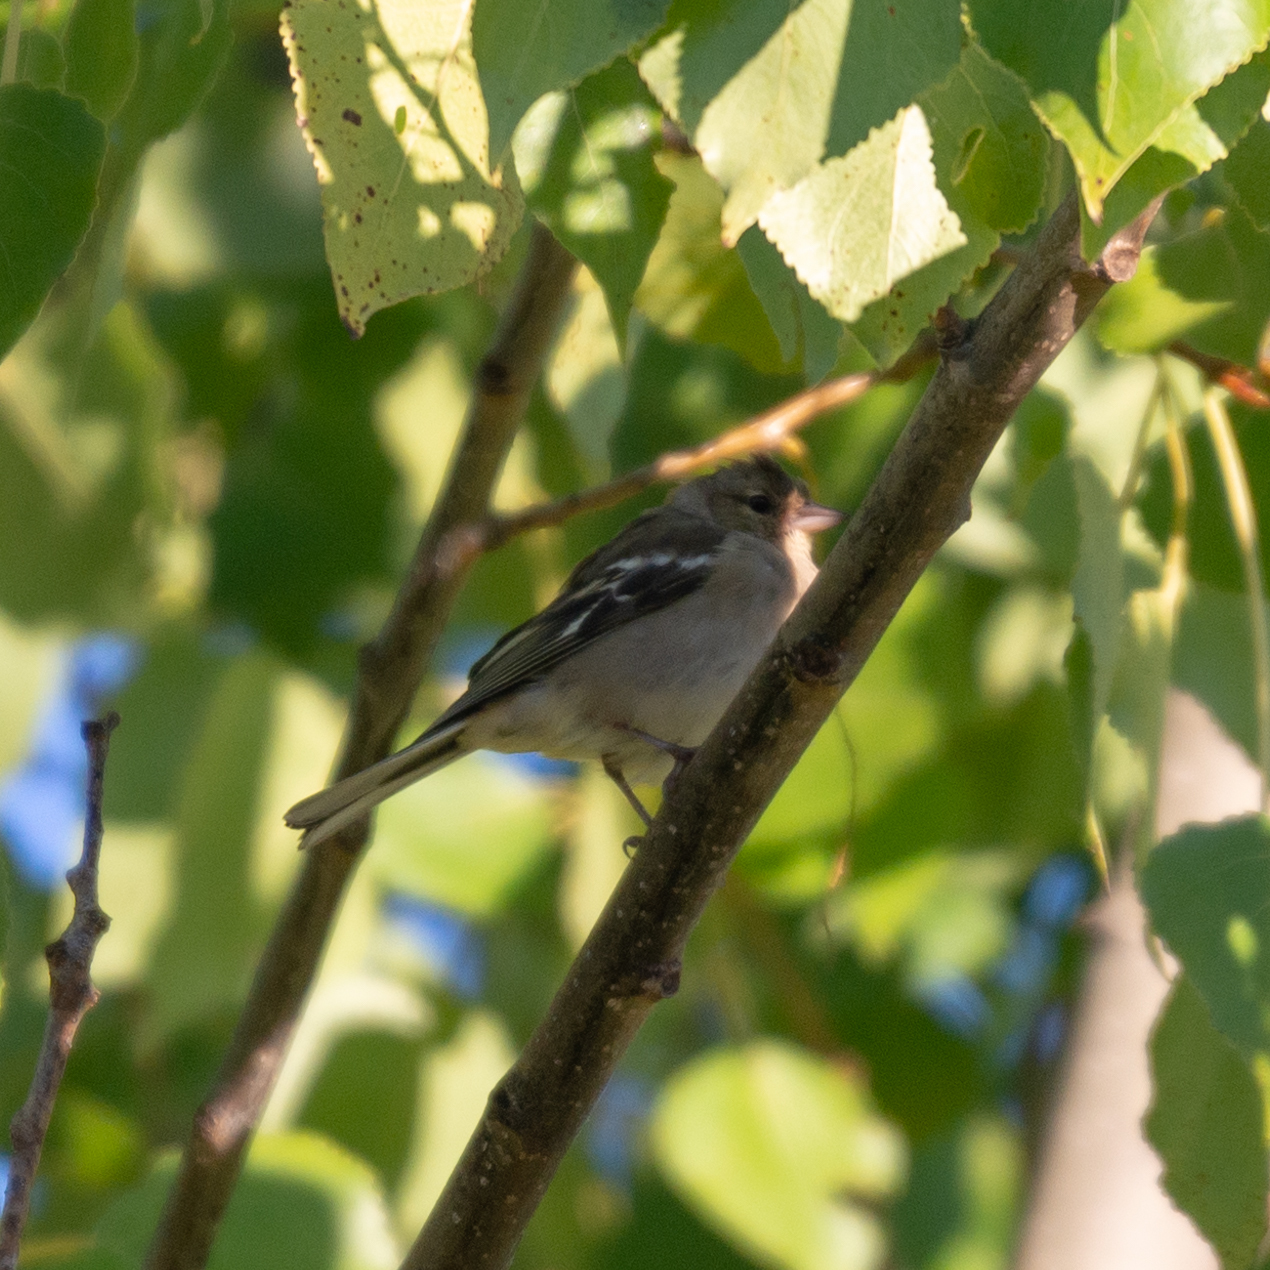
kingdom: Animalia
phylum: Chordata
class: Aves
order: Passeriformes
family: Fringillidae
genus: Fringilla
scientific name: Fringilla coelebs
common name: Common chaffinch
